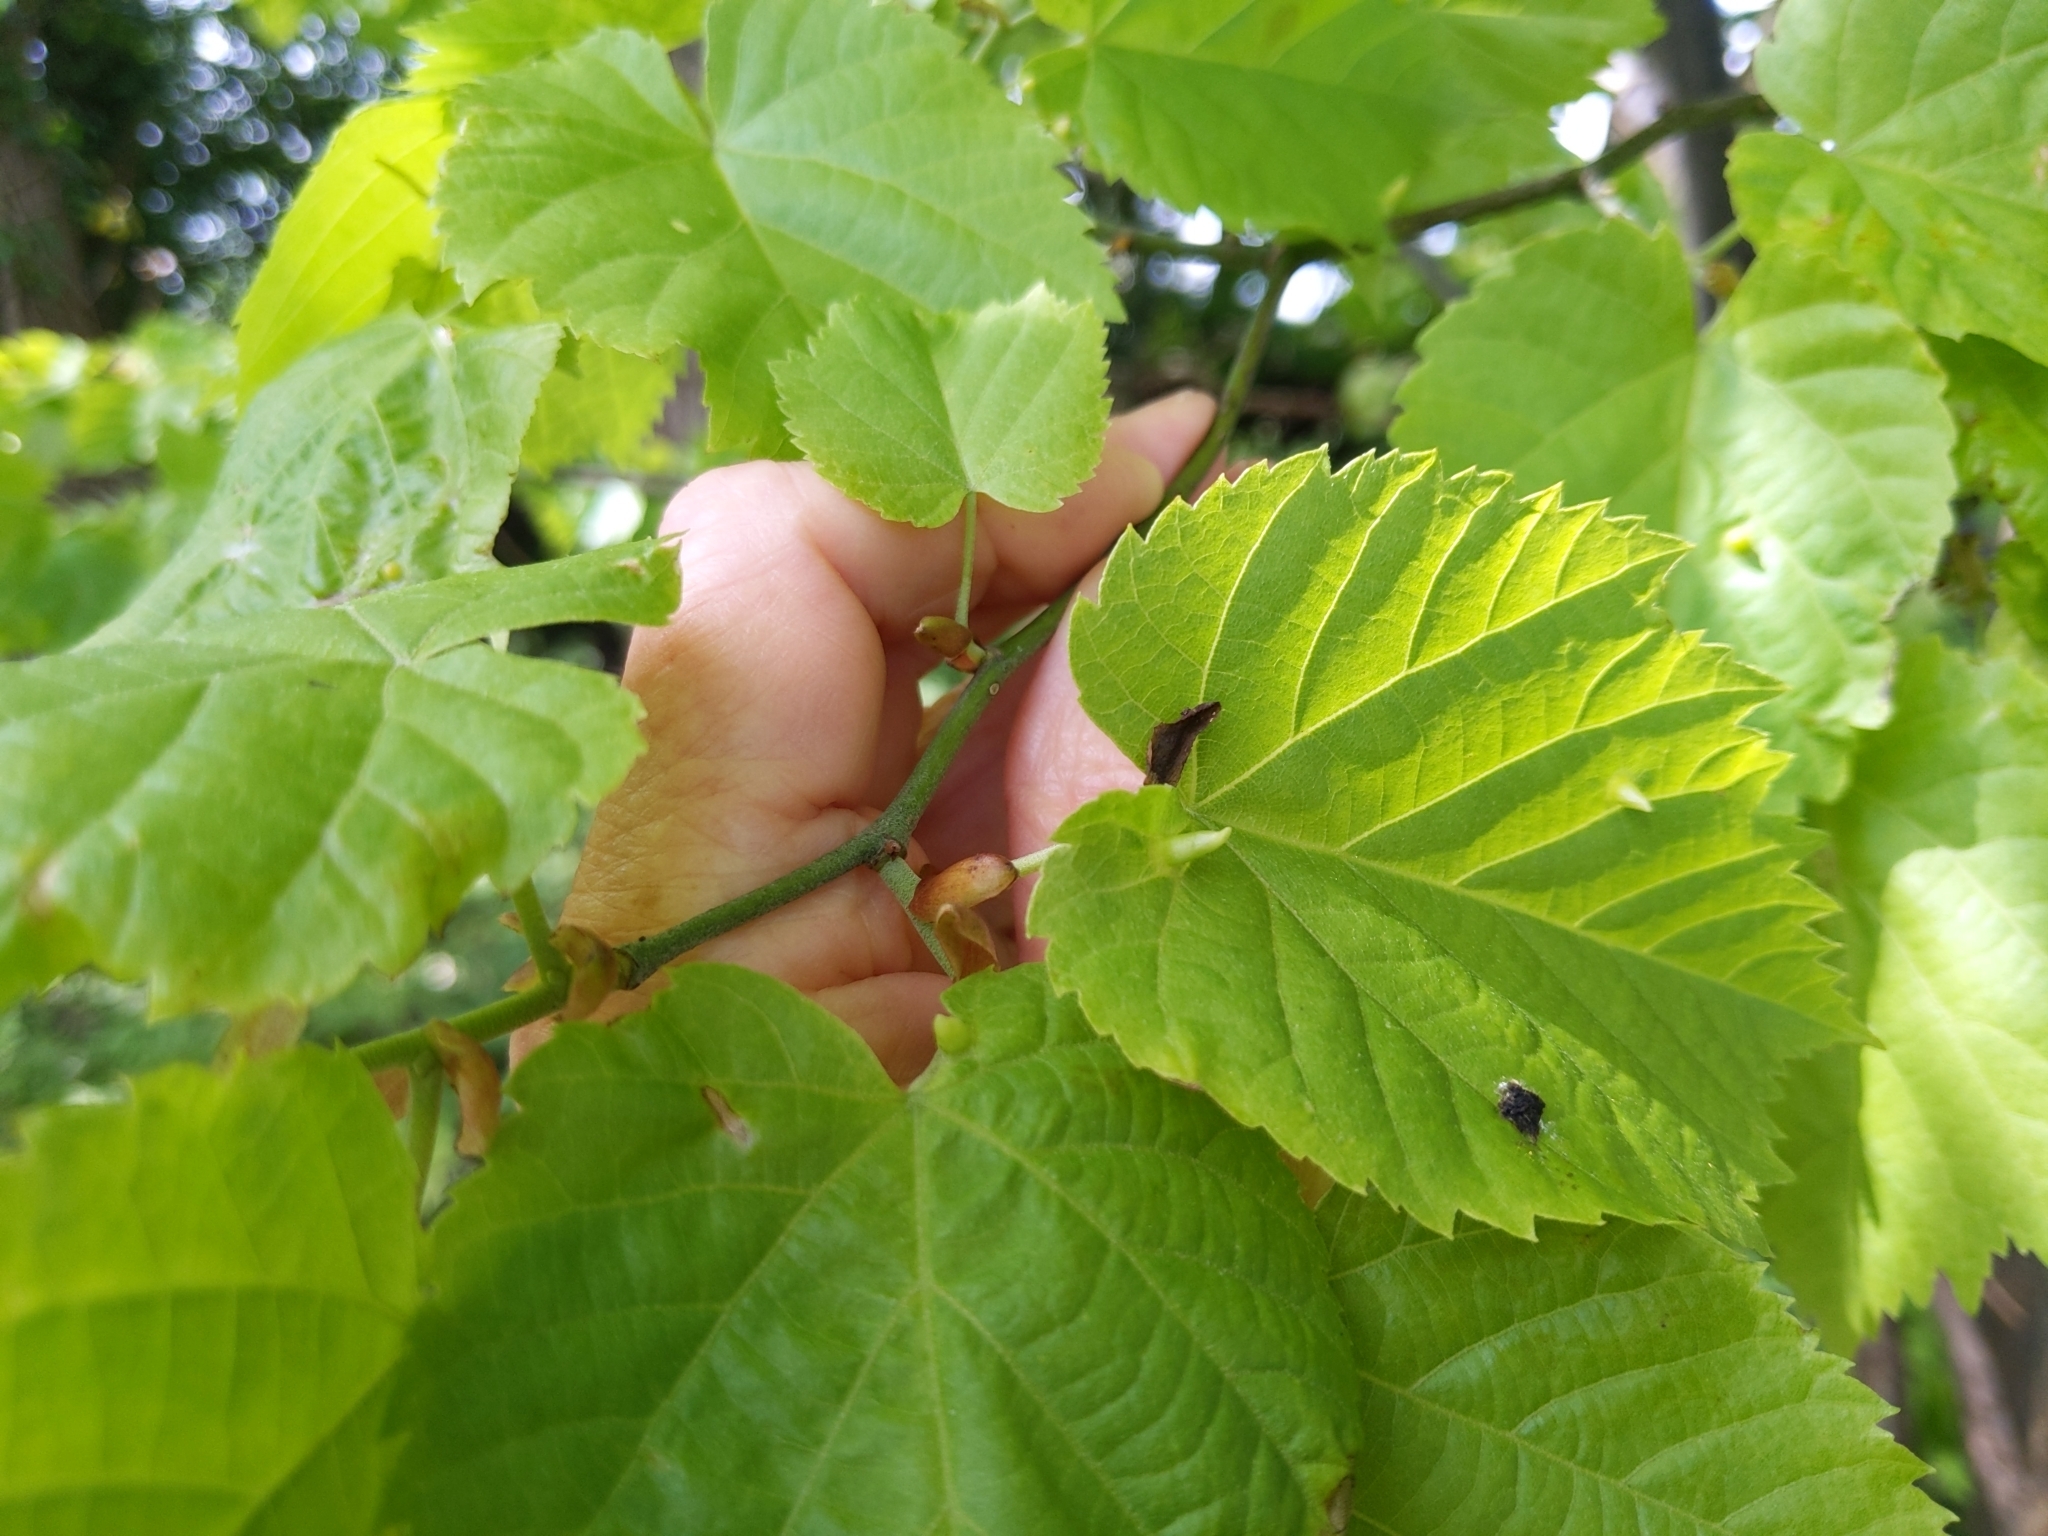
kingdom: Animalia
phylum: Arthropoda
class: Arachnida
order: Trombidiformes
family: Eriophyidae
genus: Eriophyes
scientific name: Eriophyes tiliae
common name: Red nail gall mite
